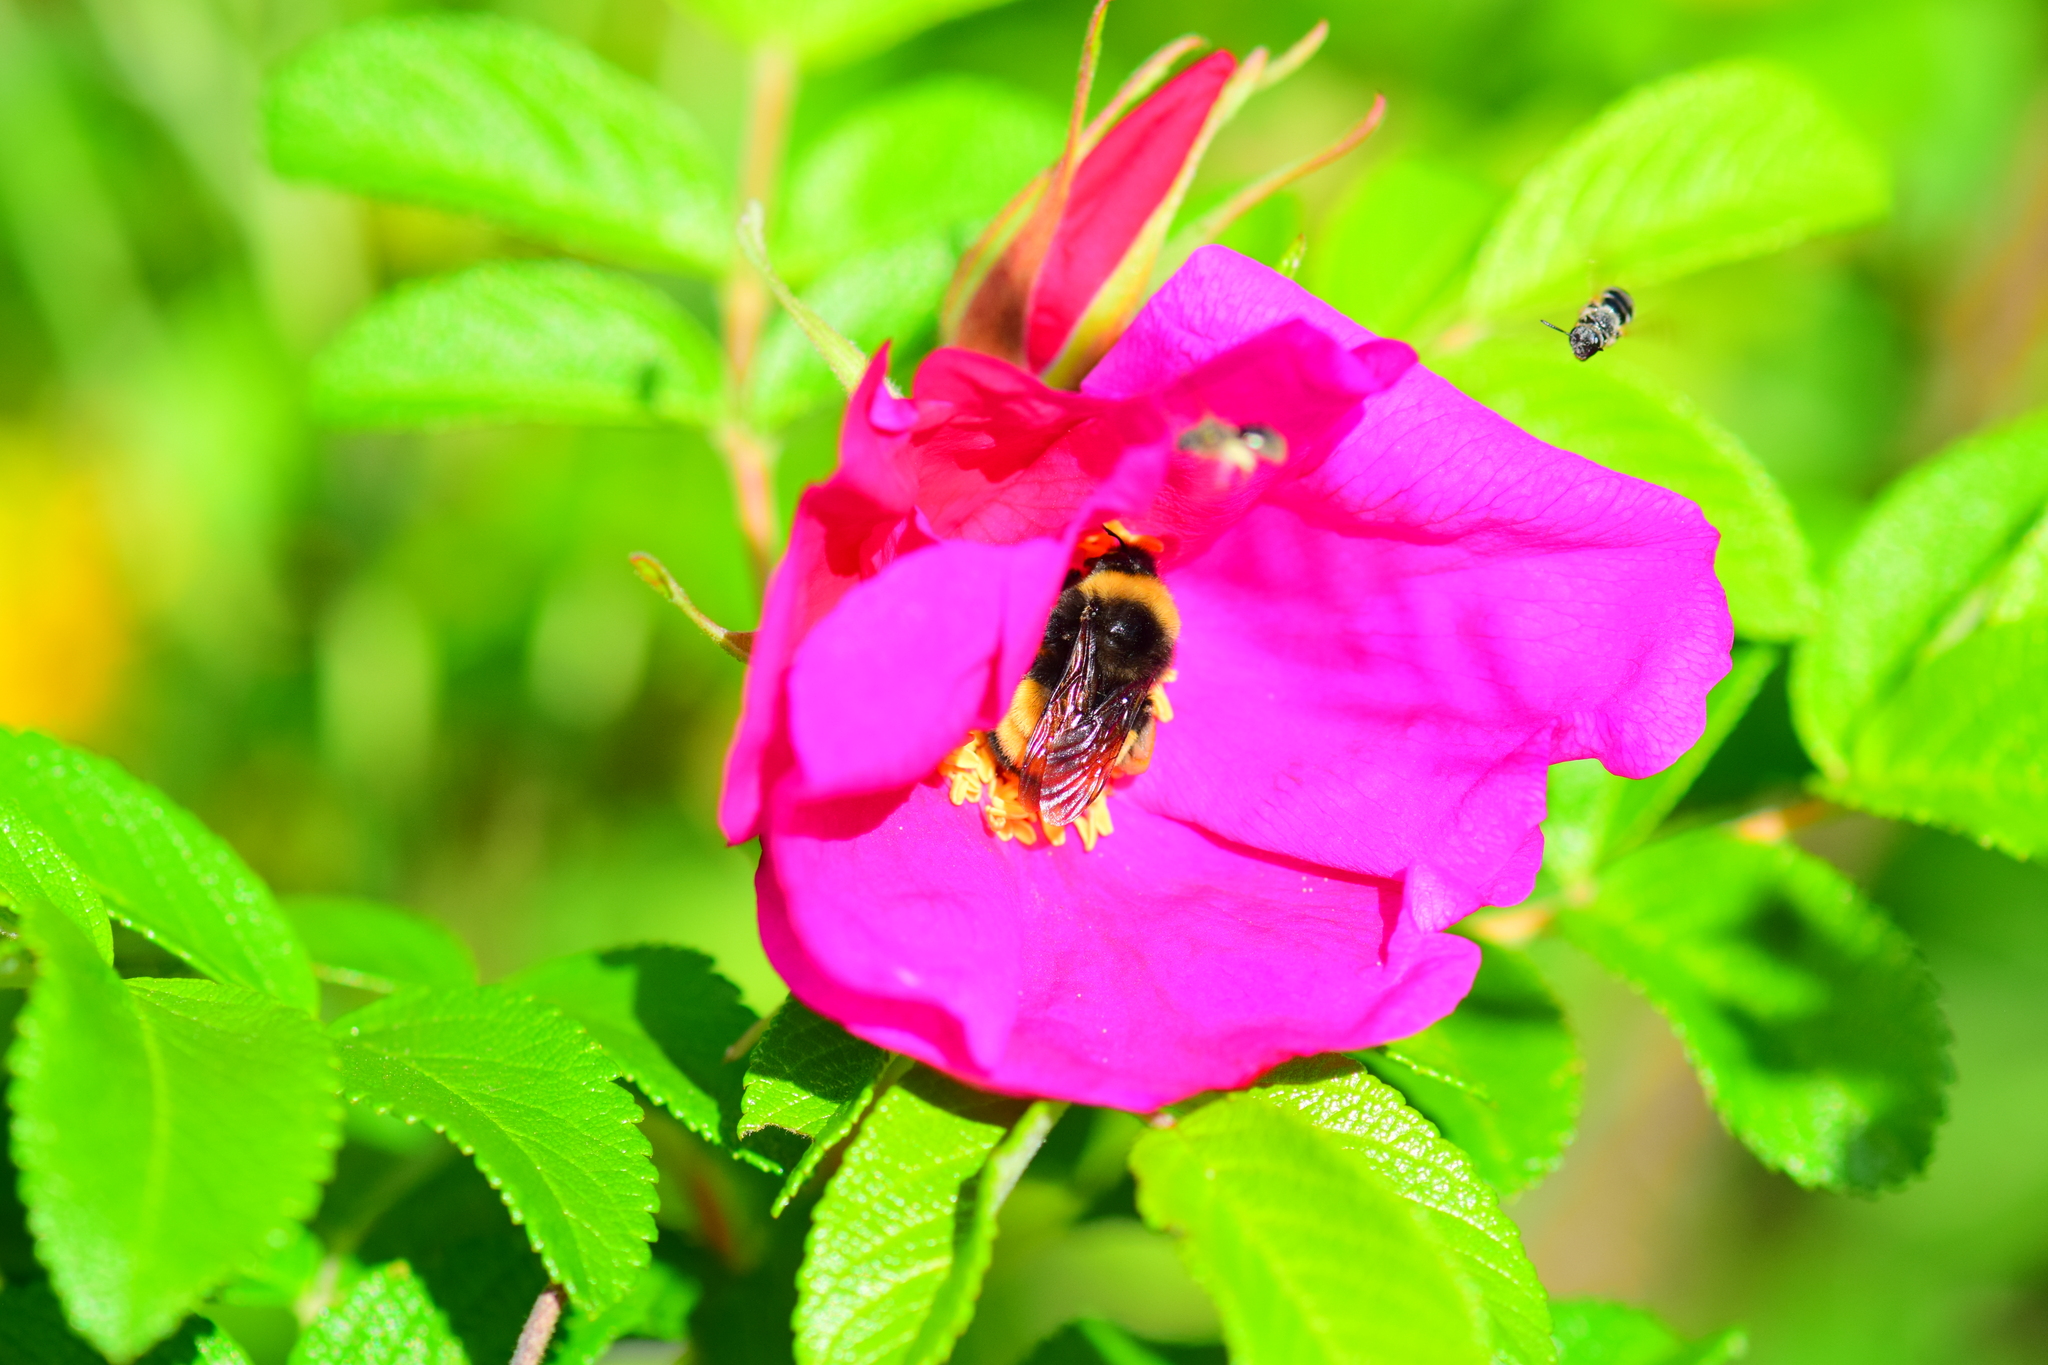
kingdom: Animalia
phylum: Arthropoda
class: Insecta
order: Hymenoptera
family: Apidae
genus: Bombus
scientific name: Bombus terricola
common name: Yellow-banded bumble bee
